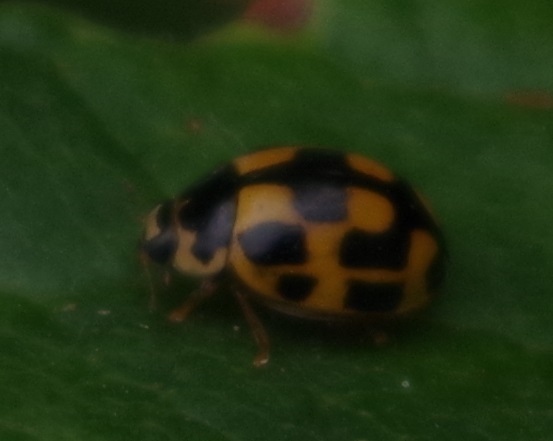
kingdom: Animalia
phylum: Arthropoda
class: Insecta
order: Coleoptera
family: Coccinellidae
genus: Propylaea
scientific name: Propylaea quatuordecimpunctata
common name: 14-spotted ladybird beetle
